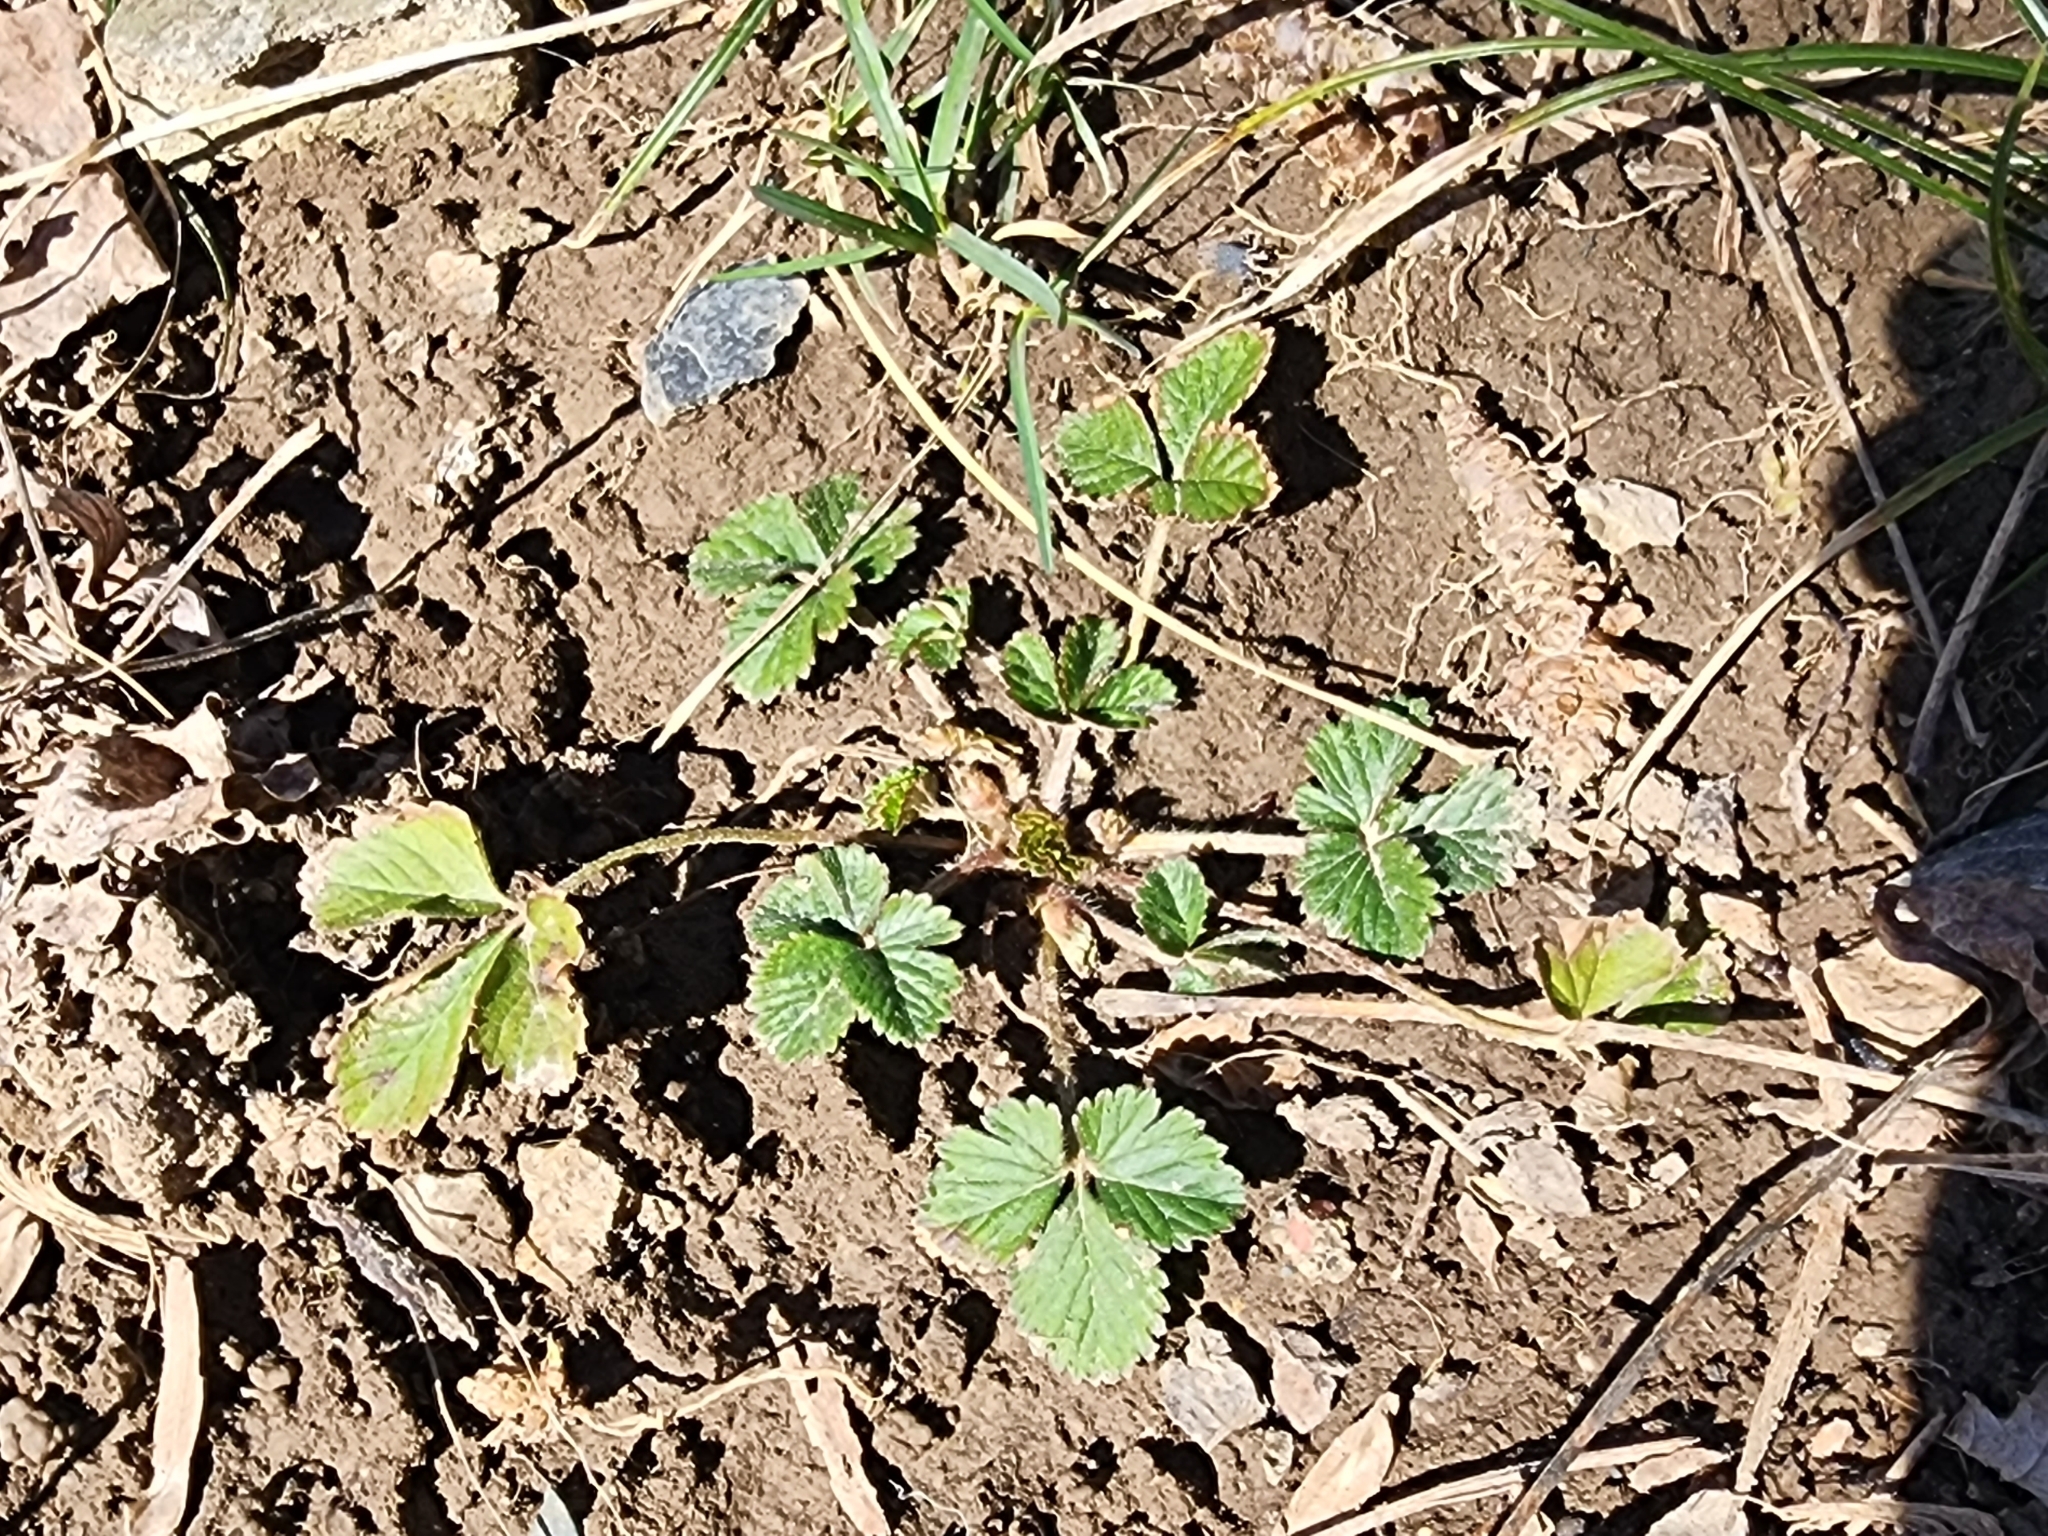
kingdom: Plantae
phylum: Tracheophyta
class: Magnoliopsida
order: Rosales
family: Rosaceae
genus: Potentilla
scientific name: Potentilla indica
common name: Yellow-flowered strawberry
